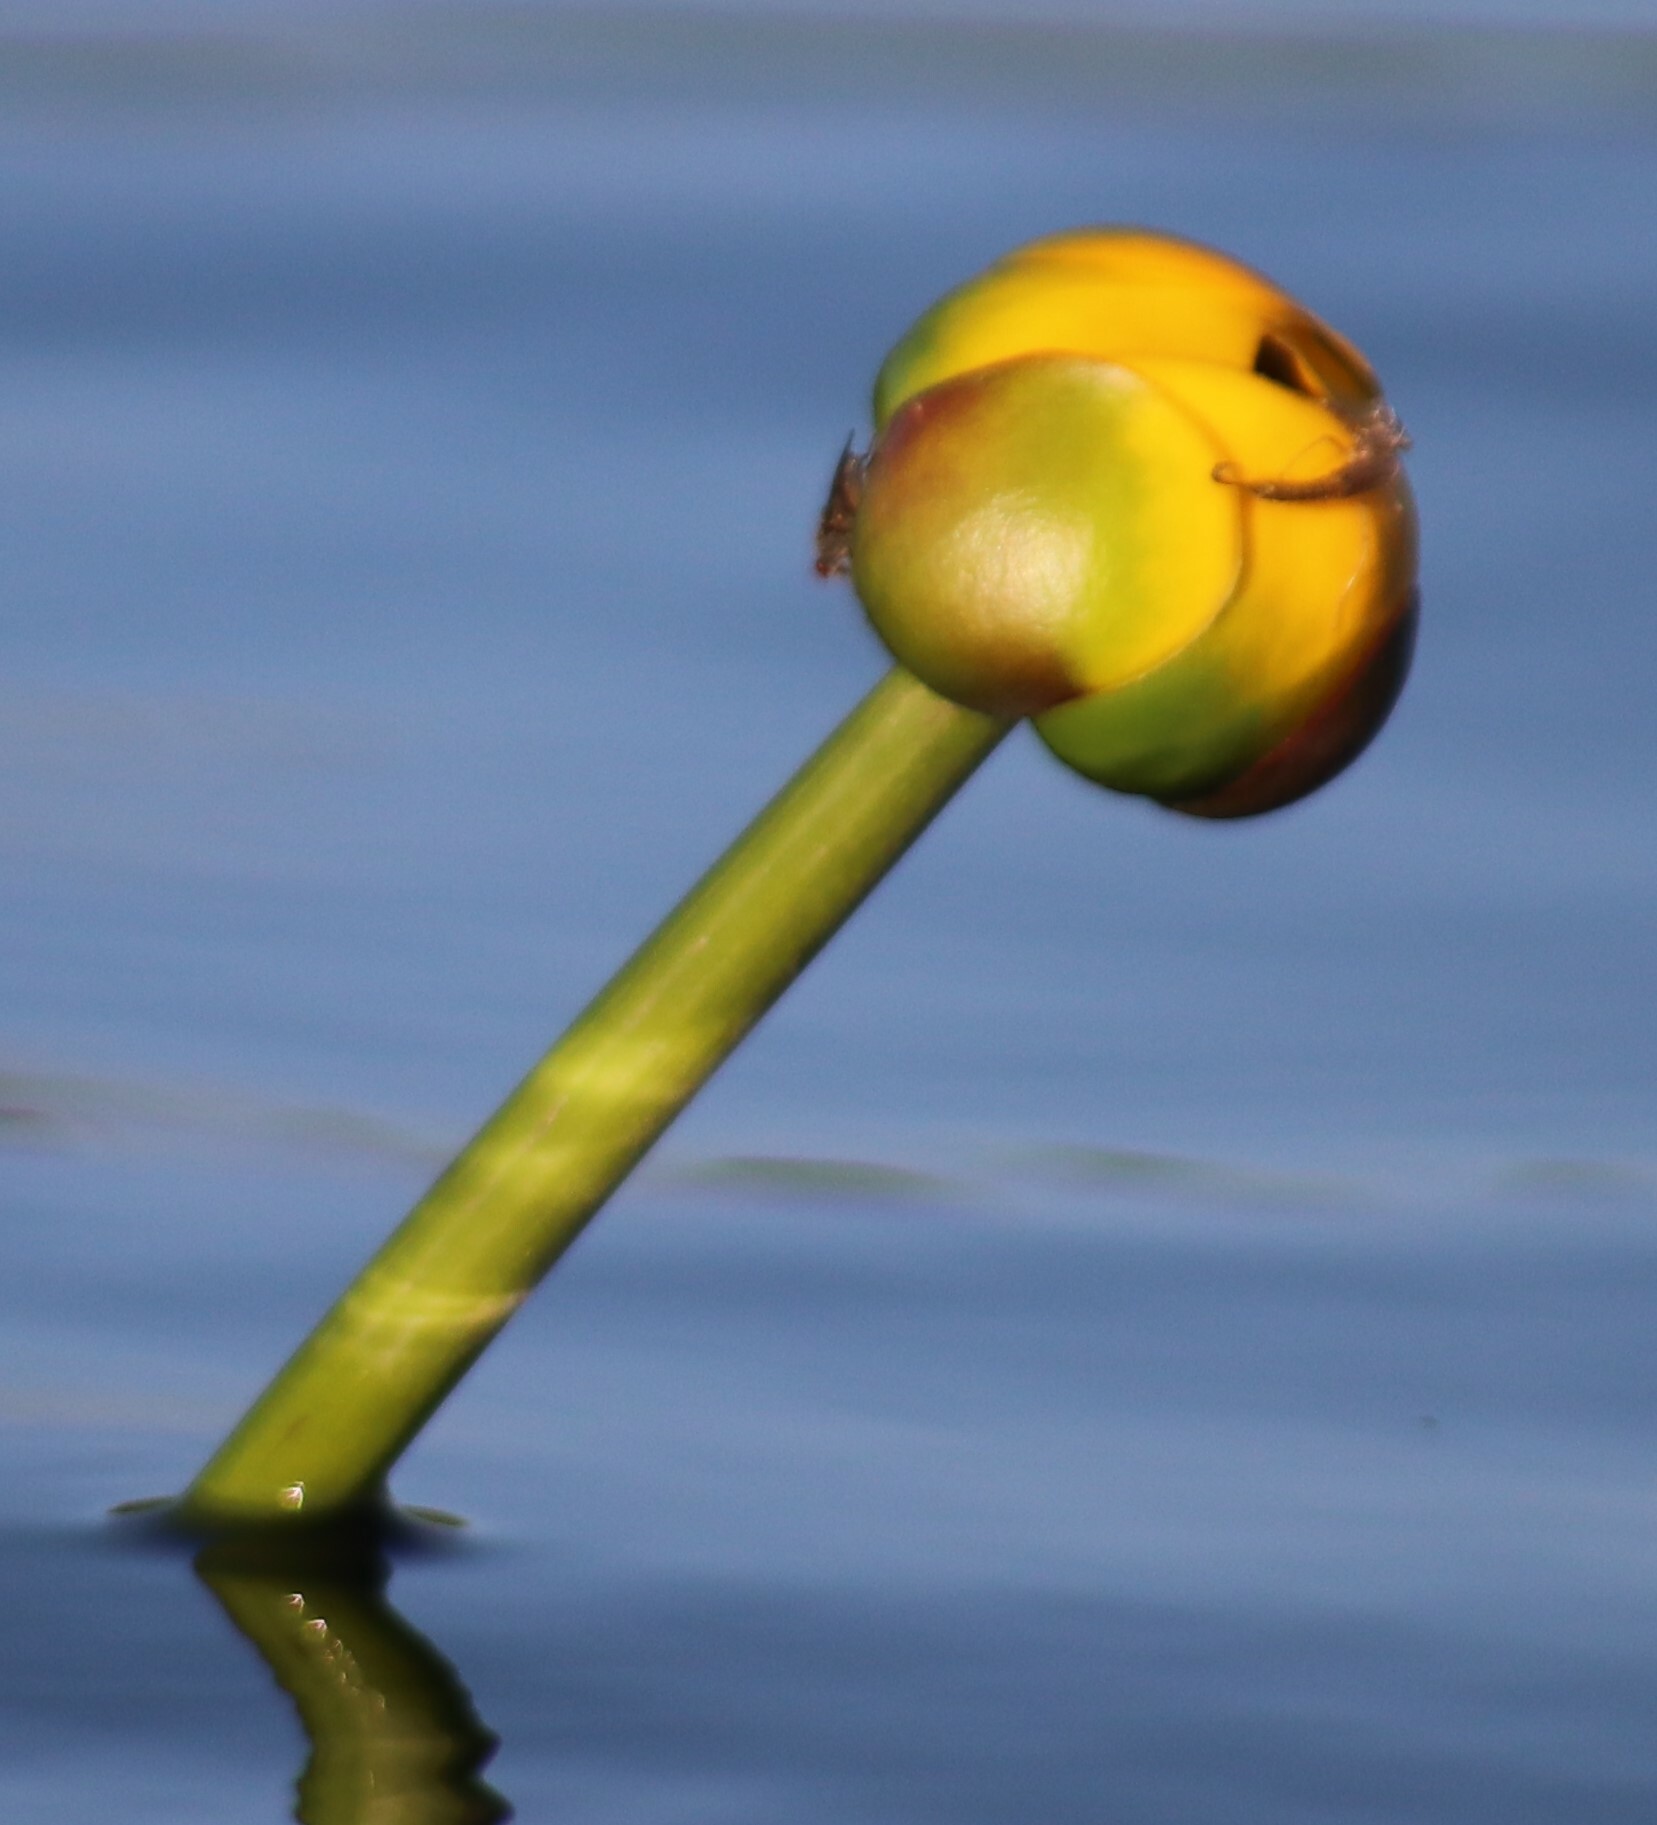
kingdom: Plantae
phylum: Tracheophyta
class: Magnoliopsida
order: Nymphaeales
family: Nymphaeaceae
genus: Nuphar
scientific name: Nuphar variegata
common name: Beaver-root
